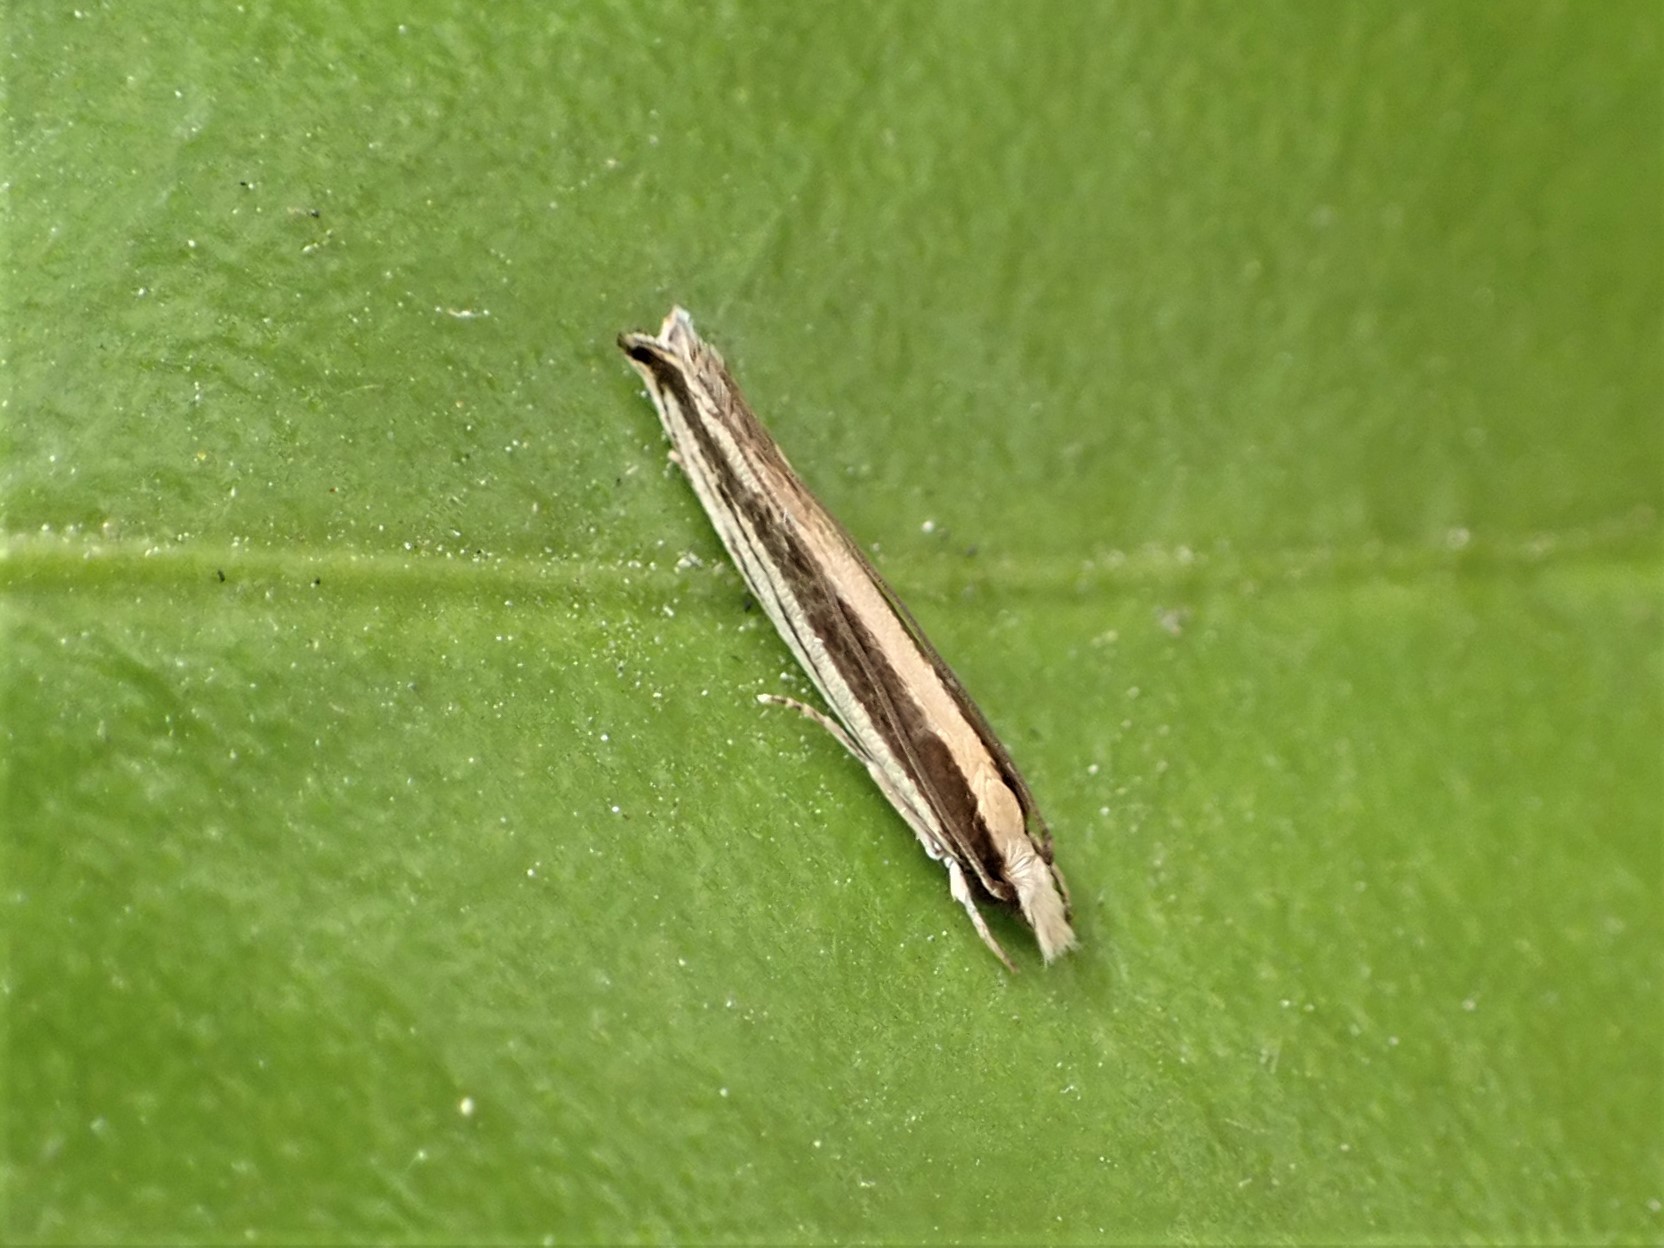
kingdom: Animalia
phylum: Arthropoda
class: Insecta
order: Lepidoptera
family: Tineidae
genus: Erechthias
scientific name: Erechthias stilbella
